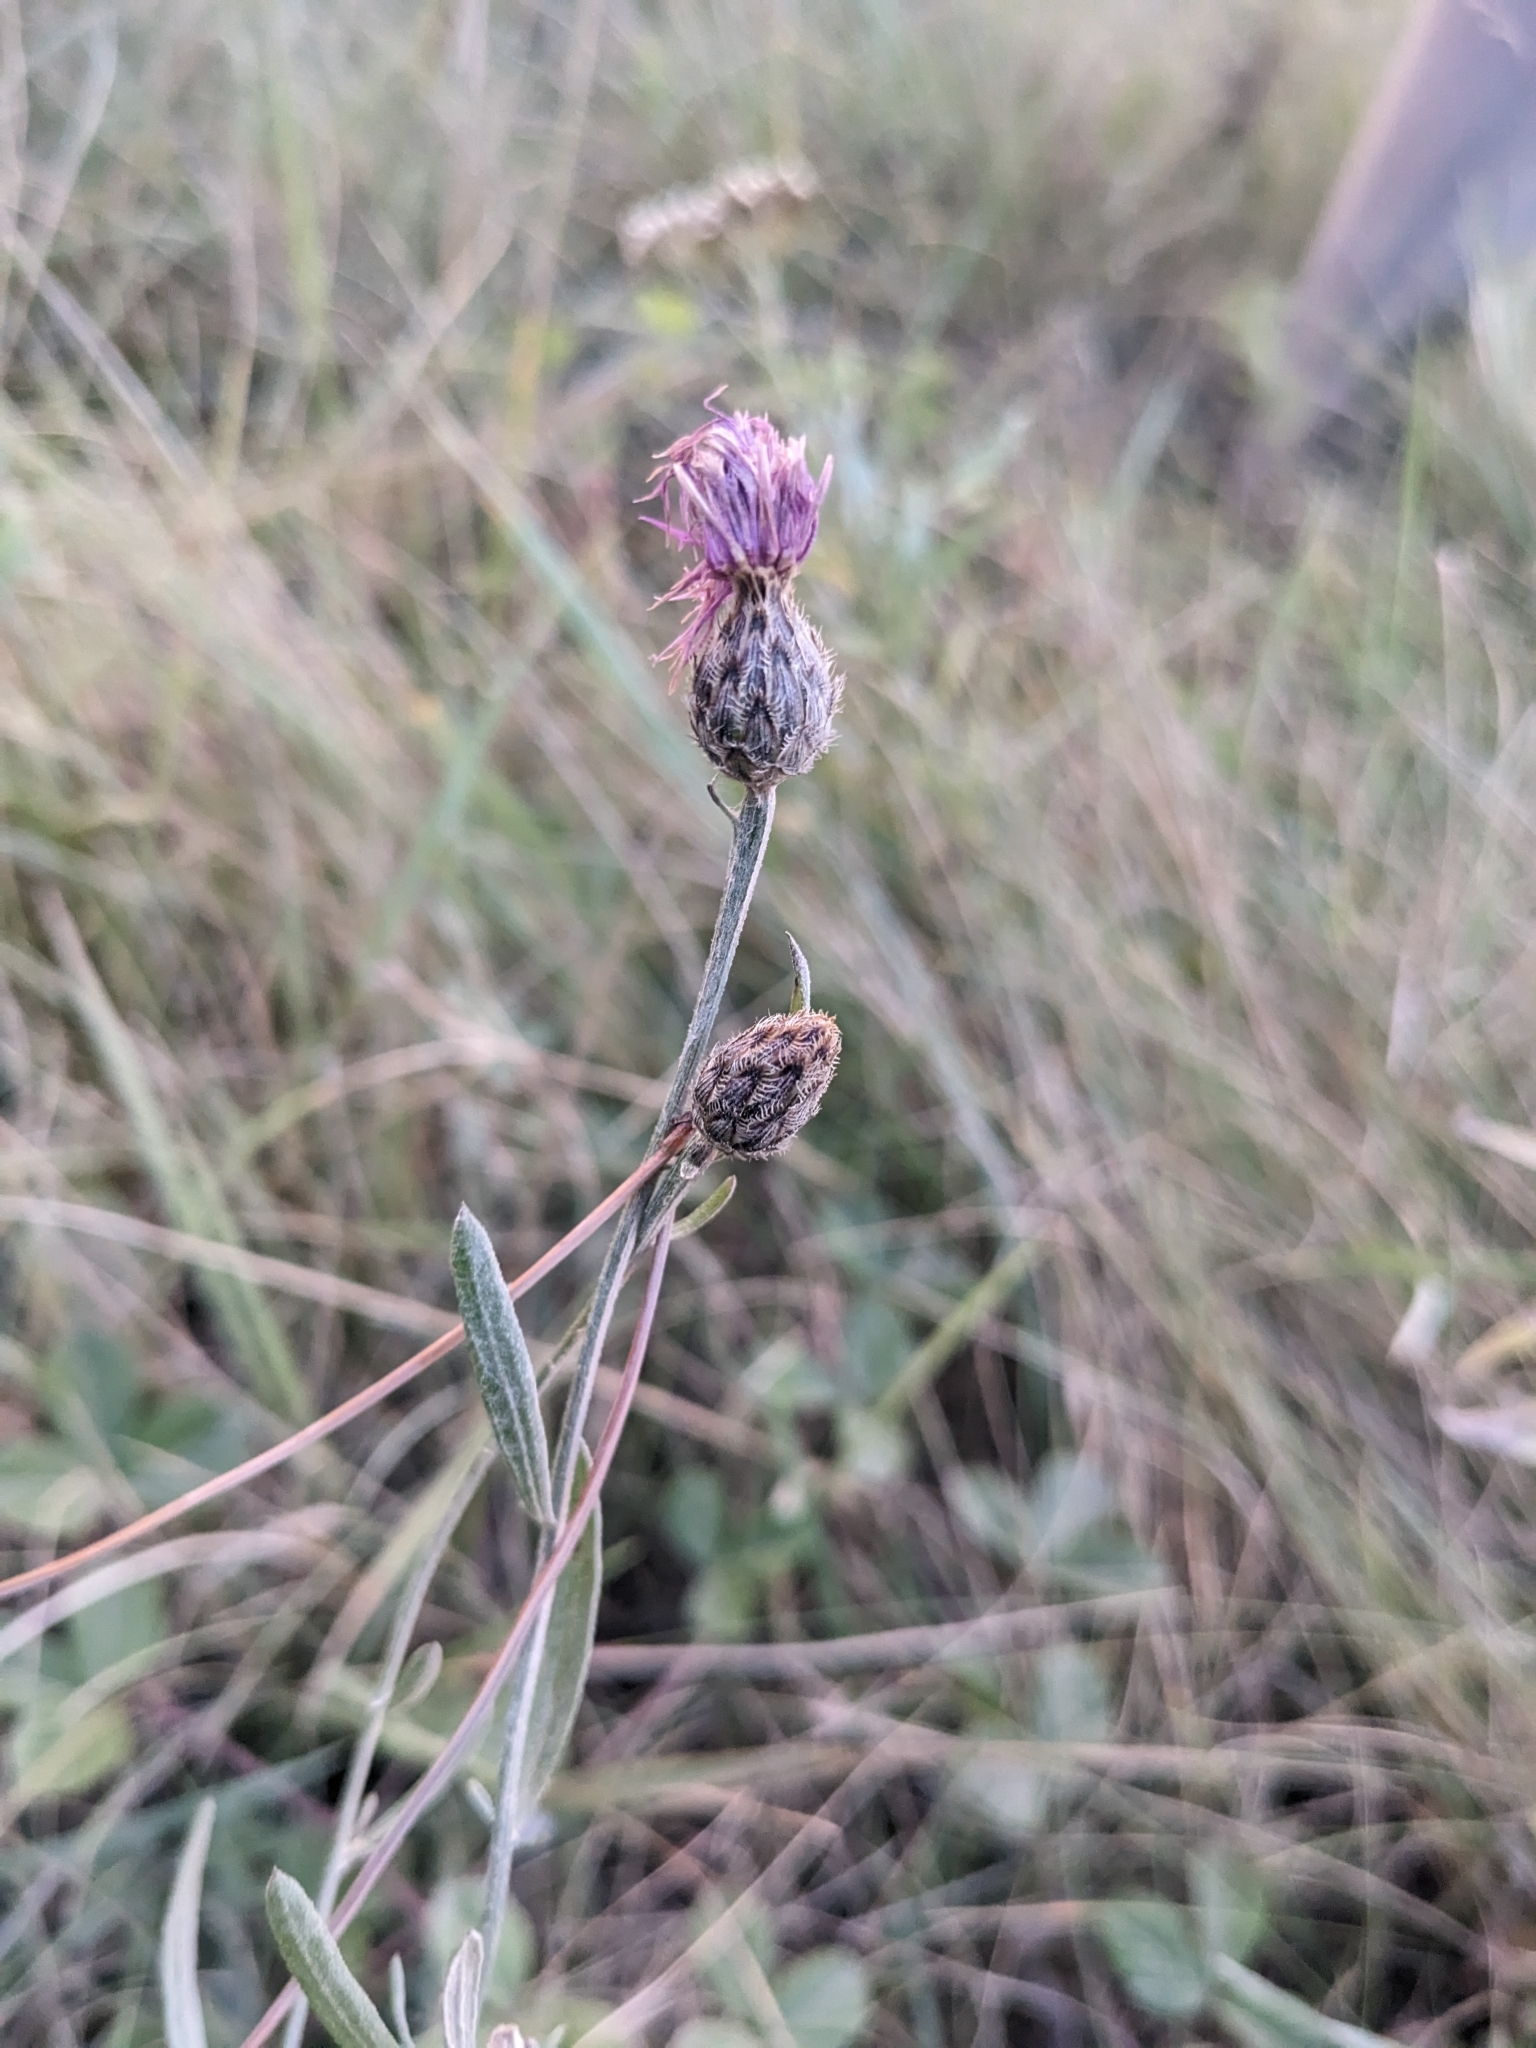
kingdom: Plantae
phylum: Tracheophyta
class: Magnoliopsida
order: Asterales
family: Asteraceae
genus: Centaurea
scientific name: Centaurea stoebe
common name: Spotted knapweed
